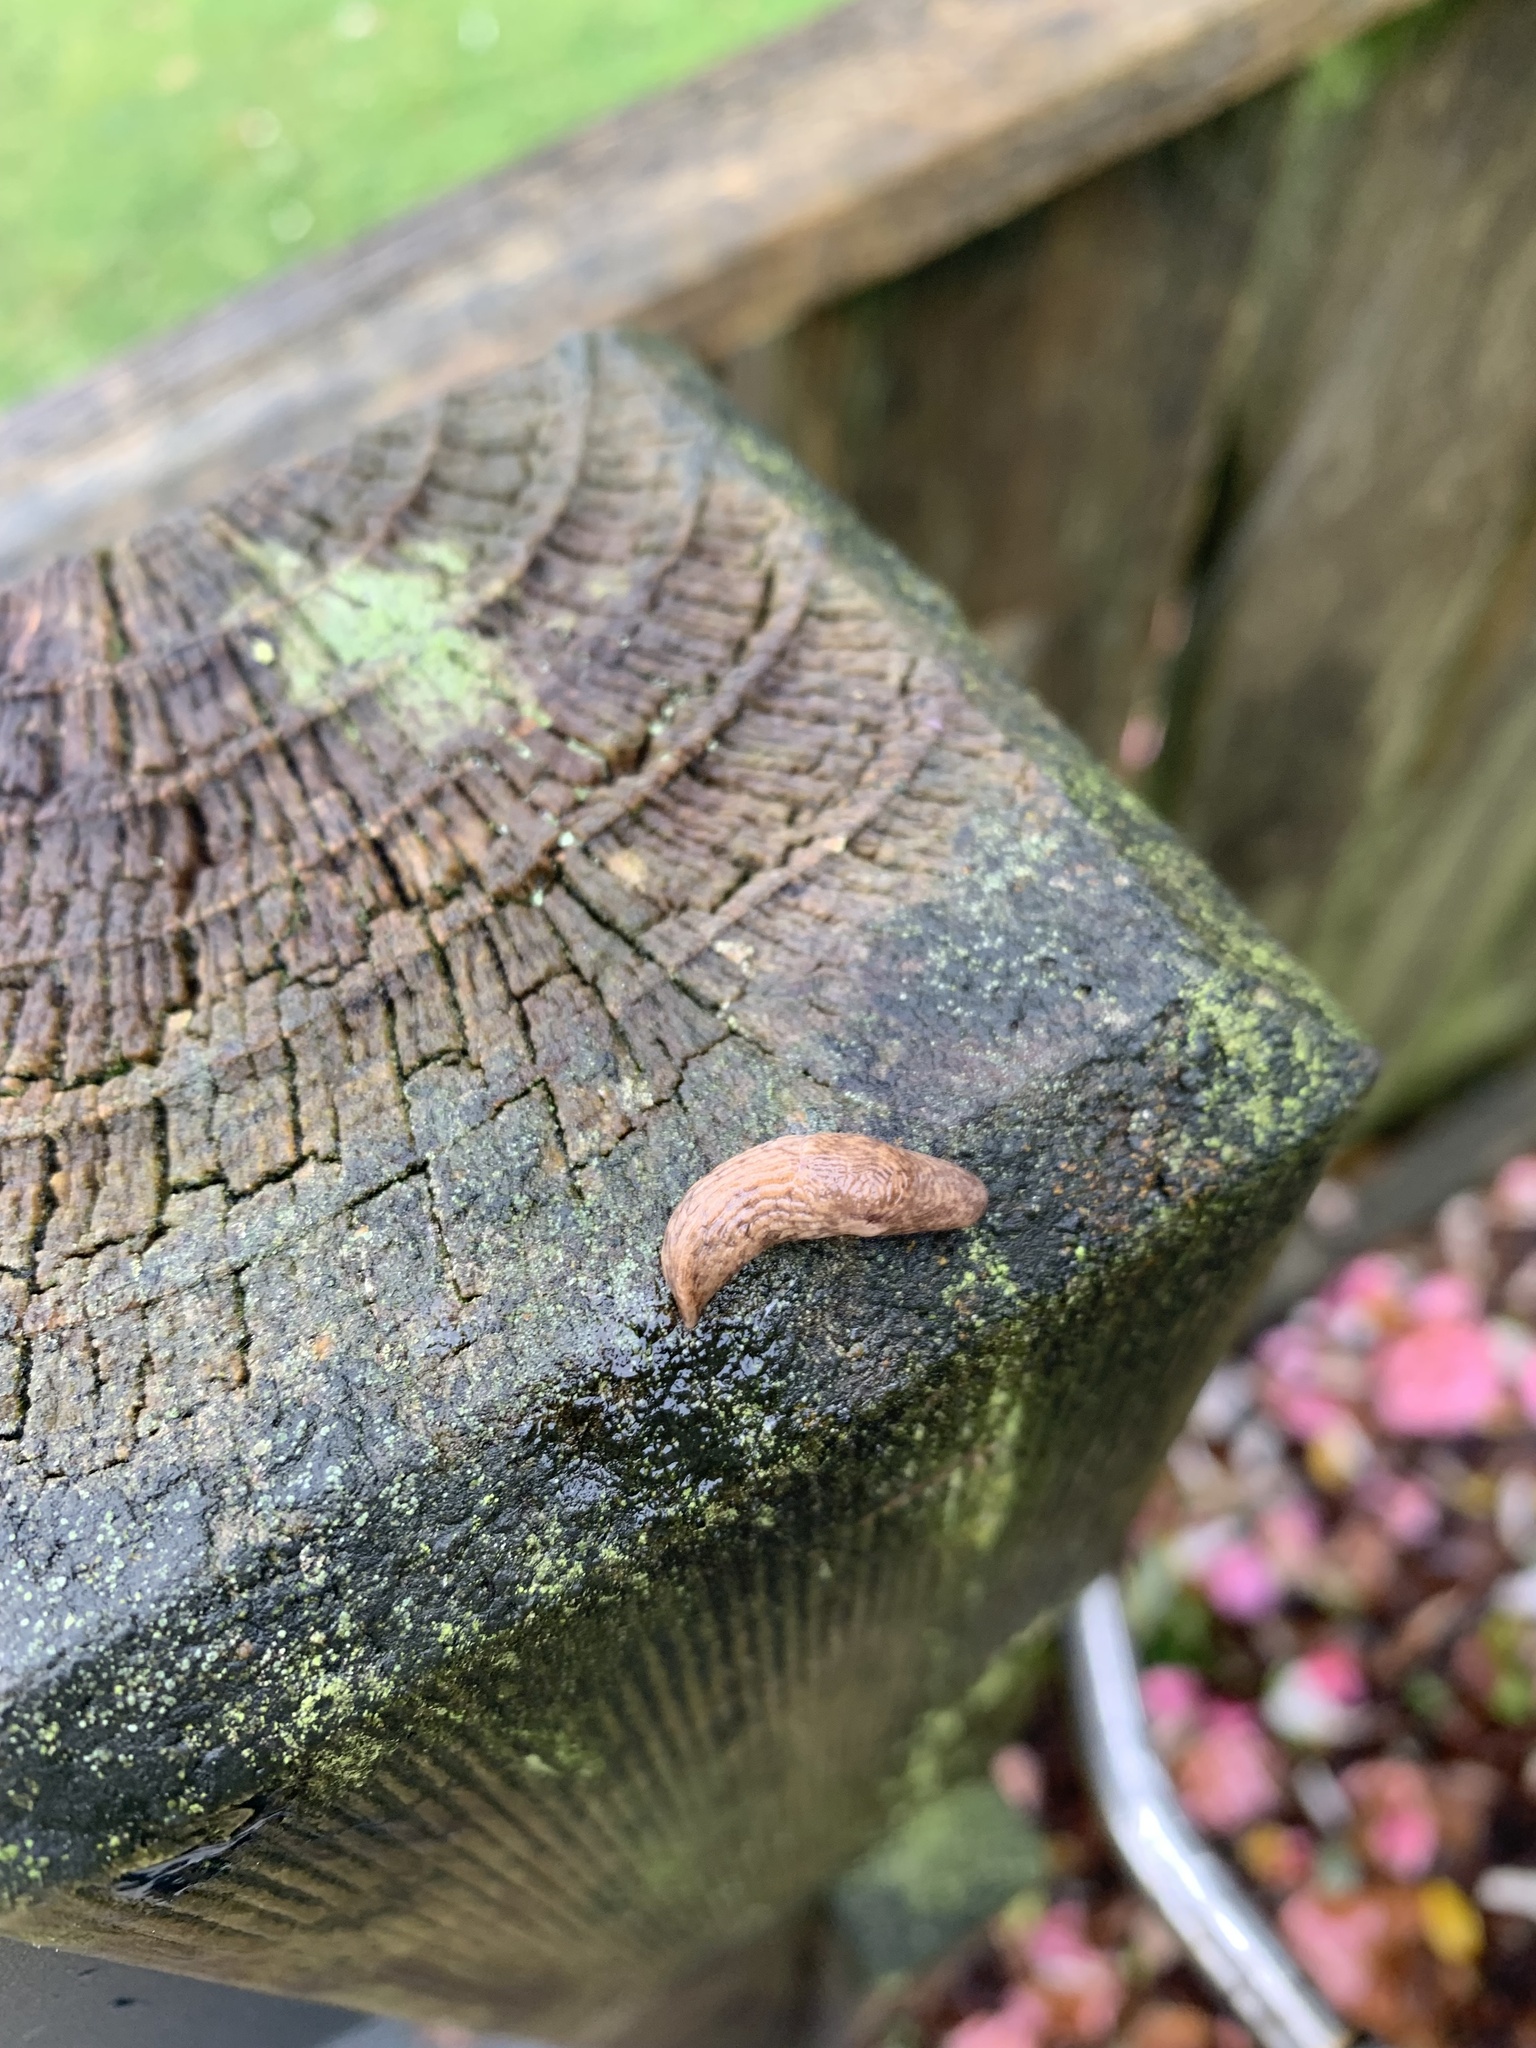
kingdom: Animalia
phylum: Mollusca
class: Gastropoda
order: Stylommatophora
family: Agriolimacidae
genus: Deroceras
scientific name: Deroceras reticulatum
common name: Gray field slug
